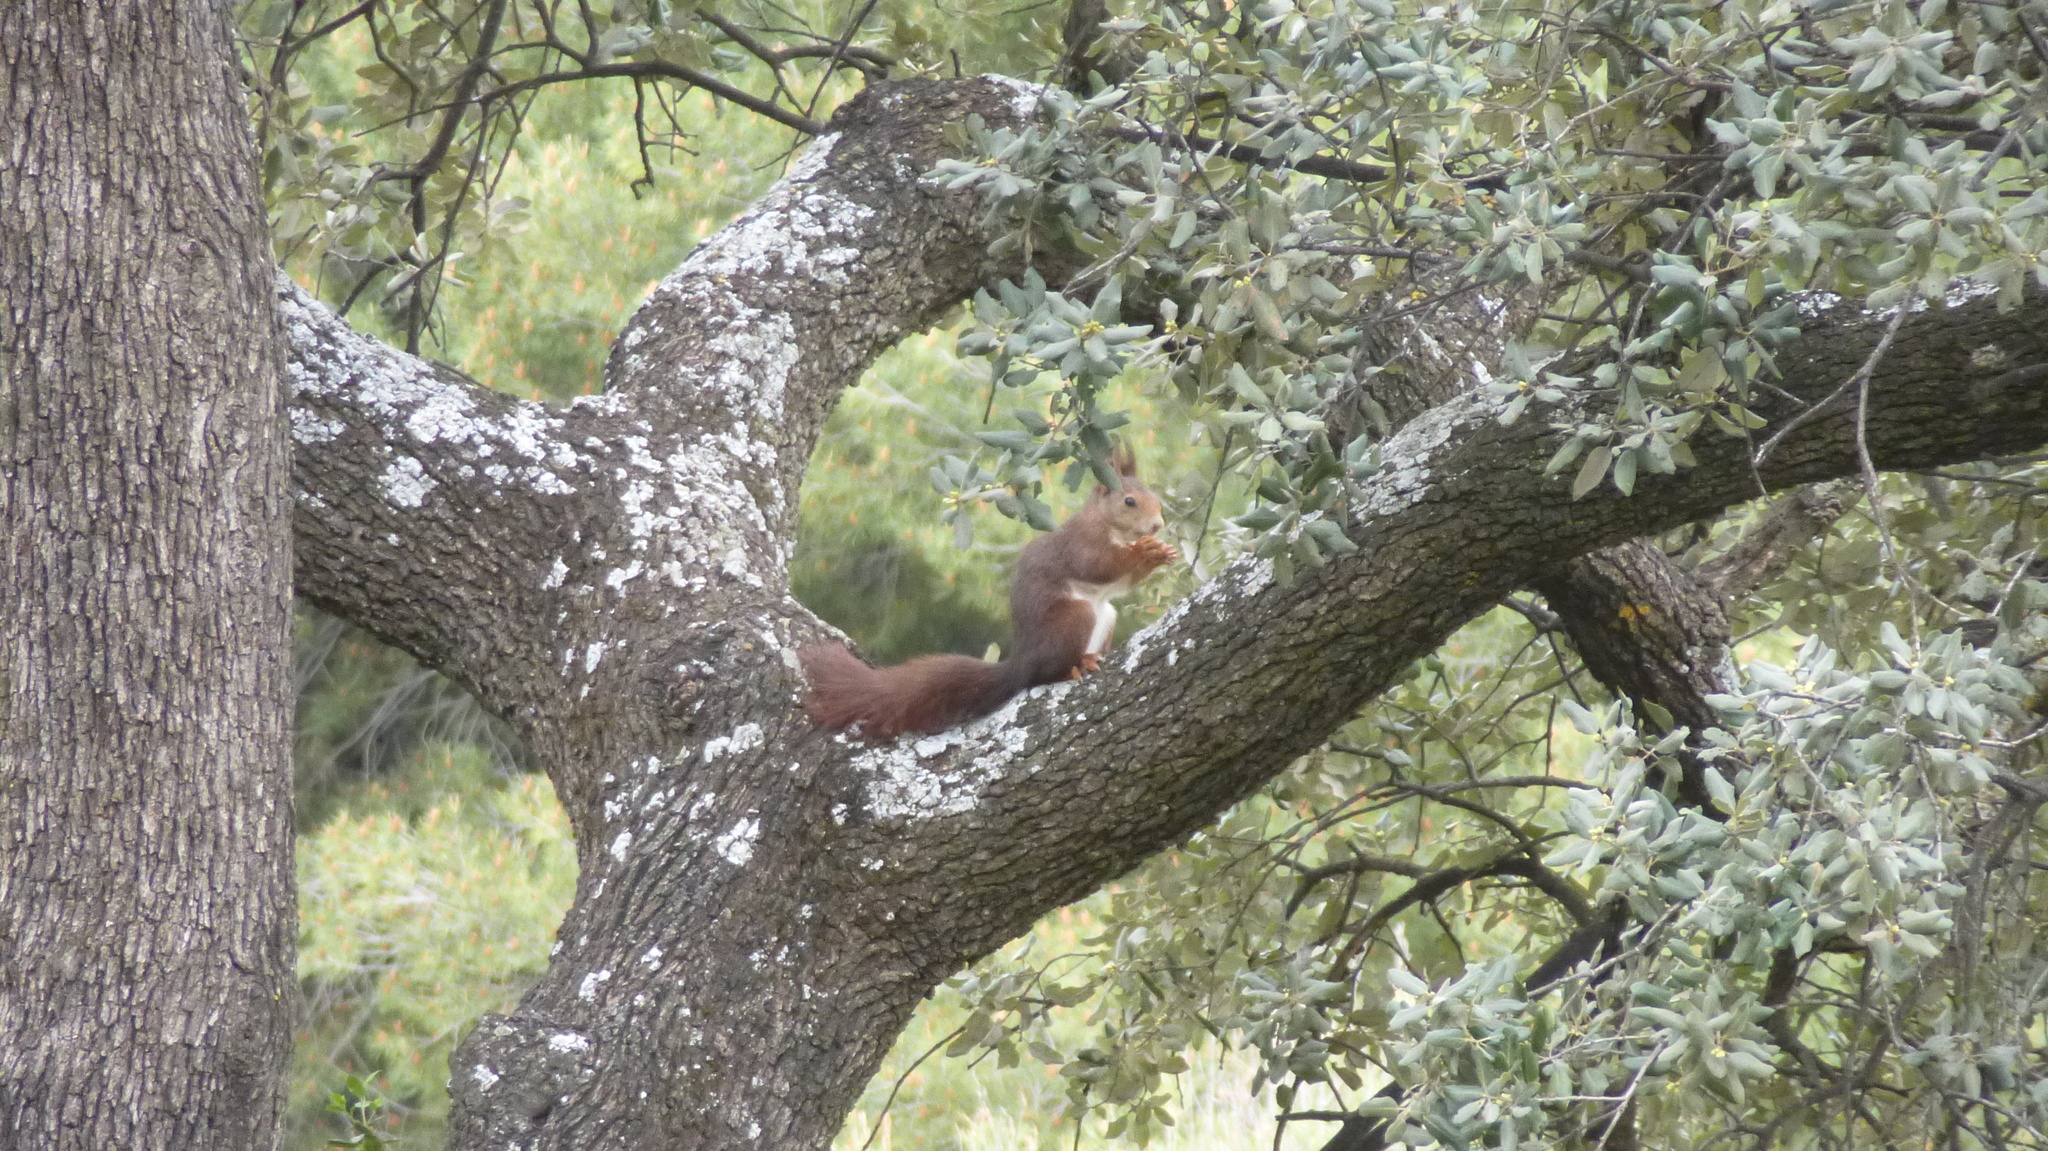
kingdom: Animalia
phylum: Chordata
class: Mammalia
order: Rodentia
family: Sciuridae
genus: Sciurus
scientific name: Sciurus vulgaris
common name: Eurasian red squirrel
